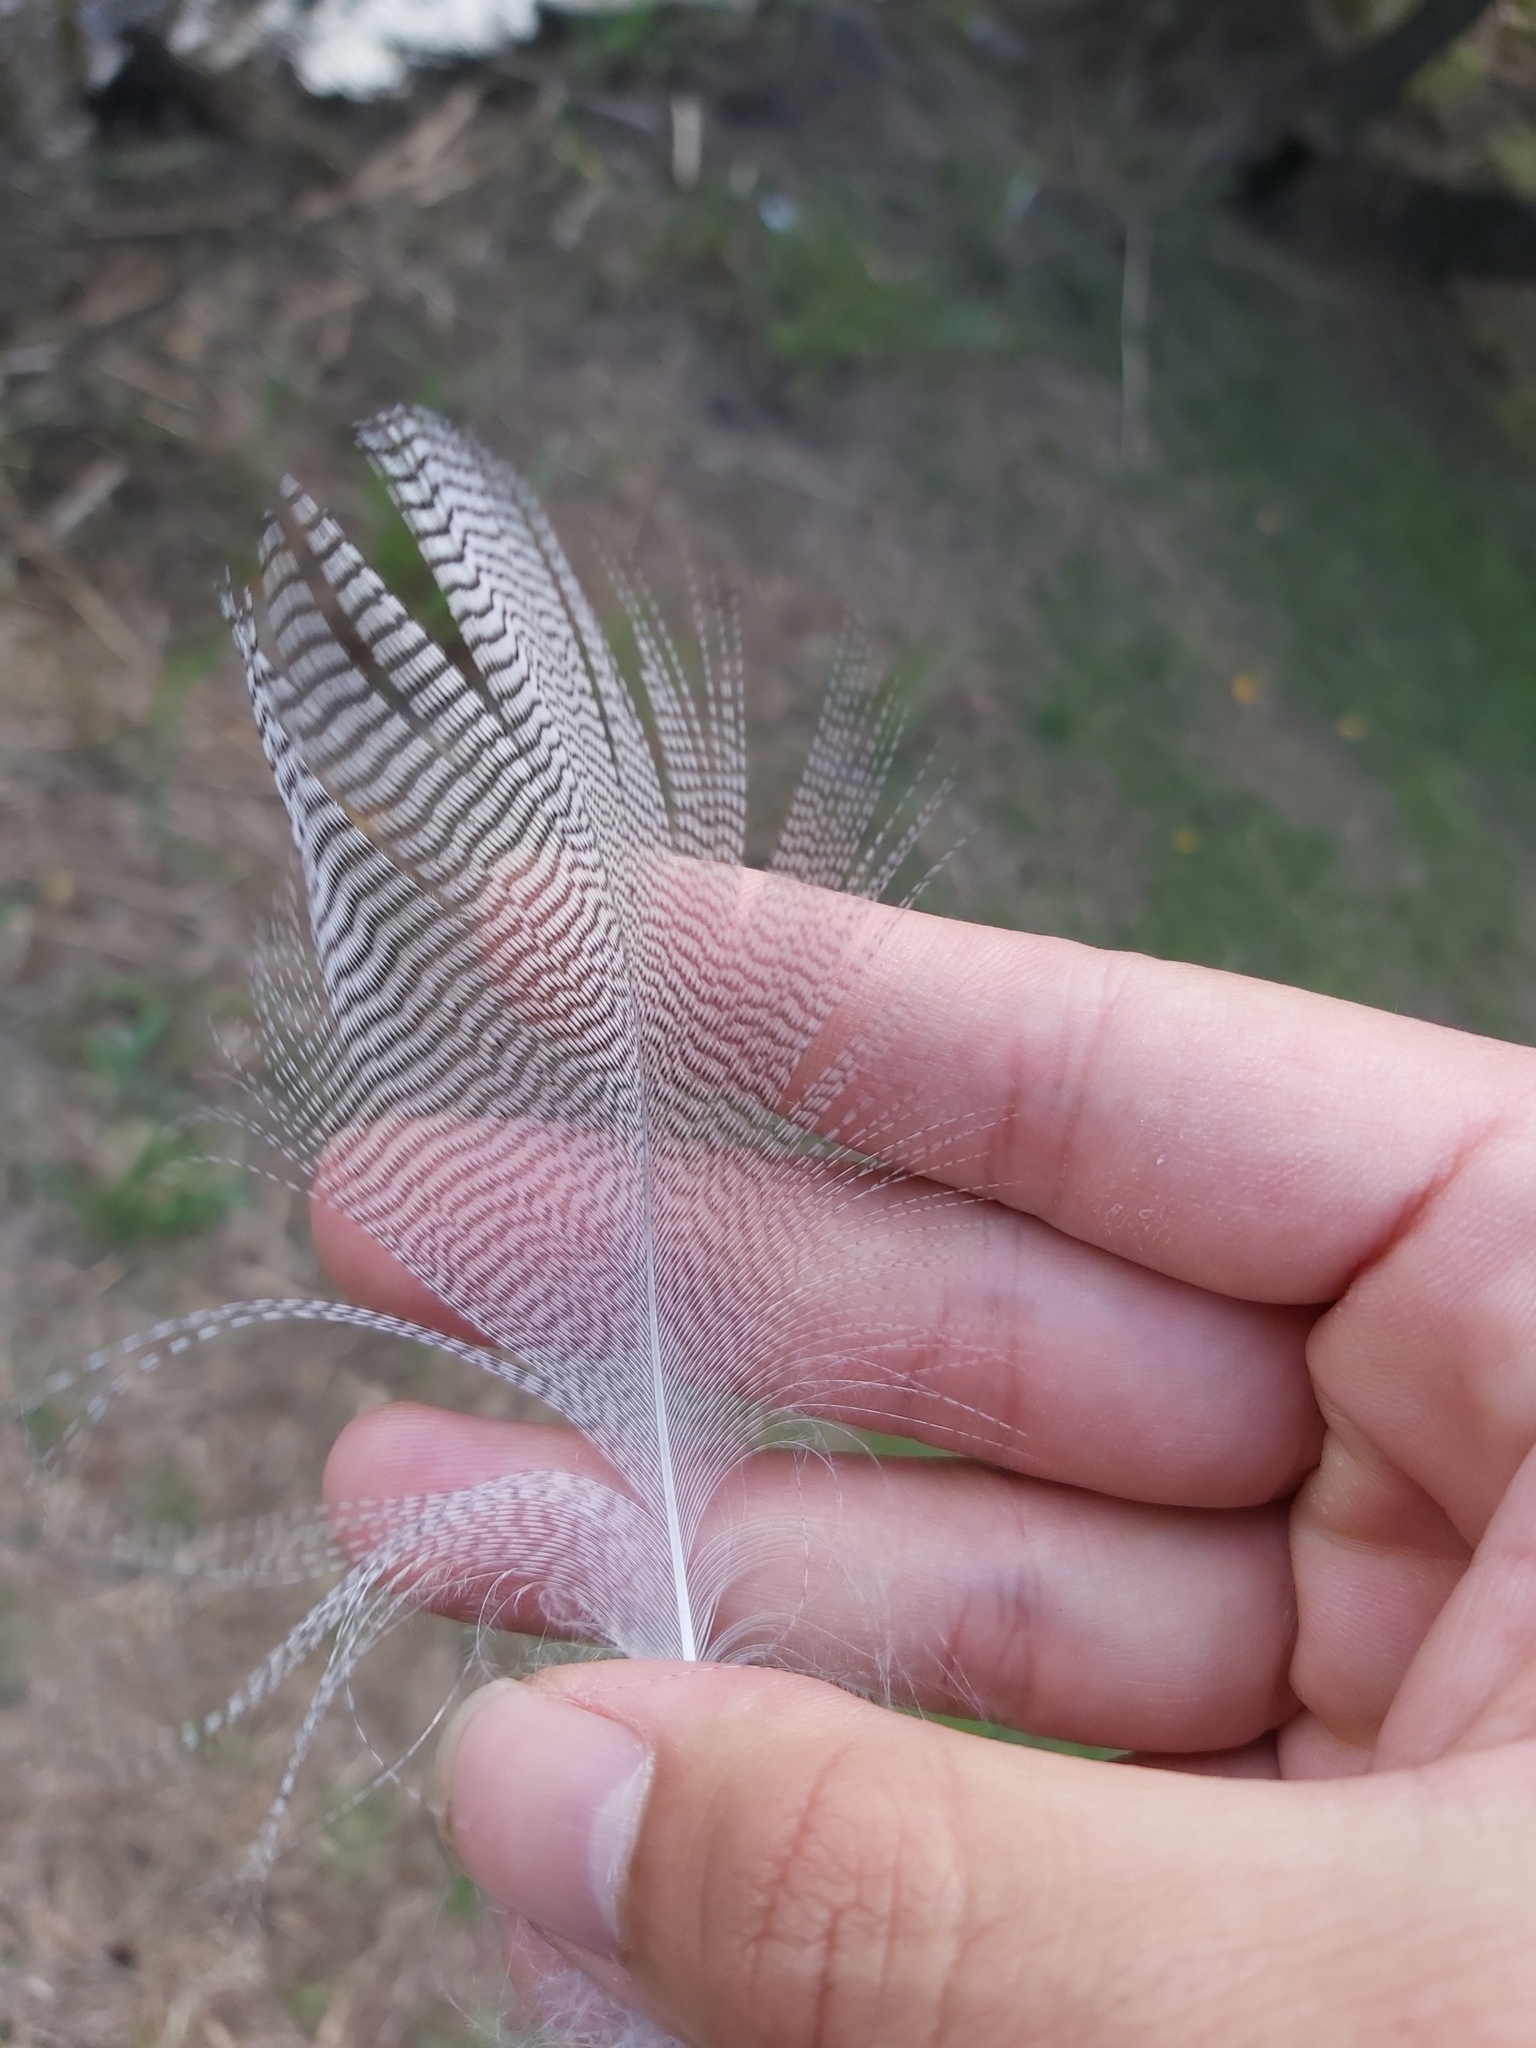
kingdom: Animalia
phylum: Chordata
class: Aves
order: Anseriformes
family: Anatidae
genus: Chenonetta
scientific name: Chenonetta jubata
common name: Maned duck
